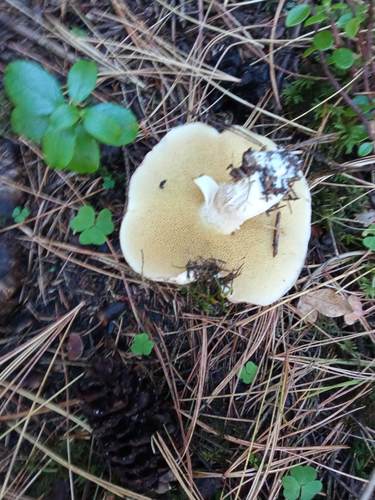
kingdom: Fungi
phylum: Basidiomycota
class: Agaricomycetes
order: Boletales
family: Suillaceae
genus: Suillus
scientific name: Suillus placidus
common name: Slippery white bolete
